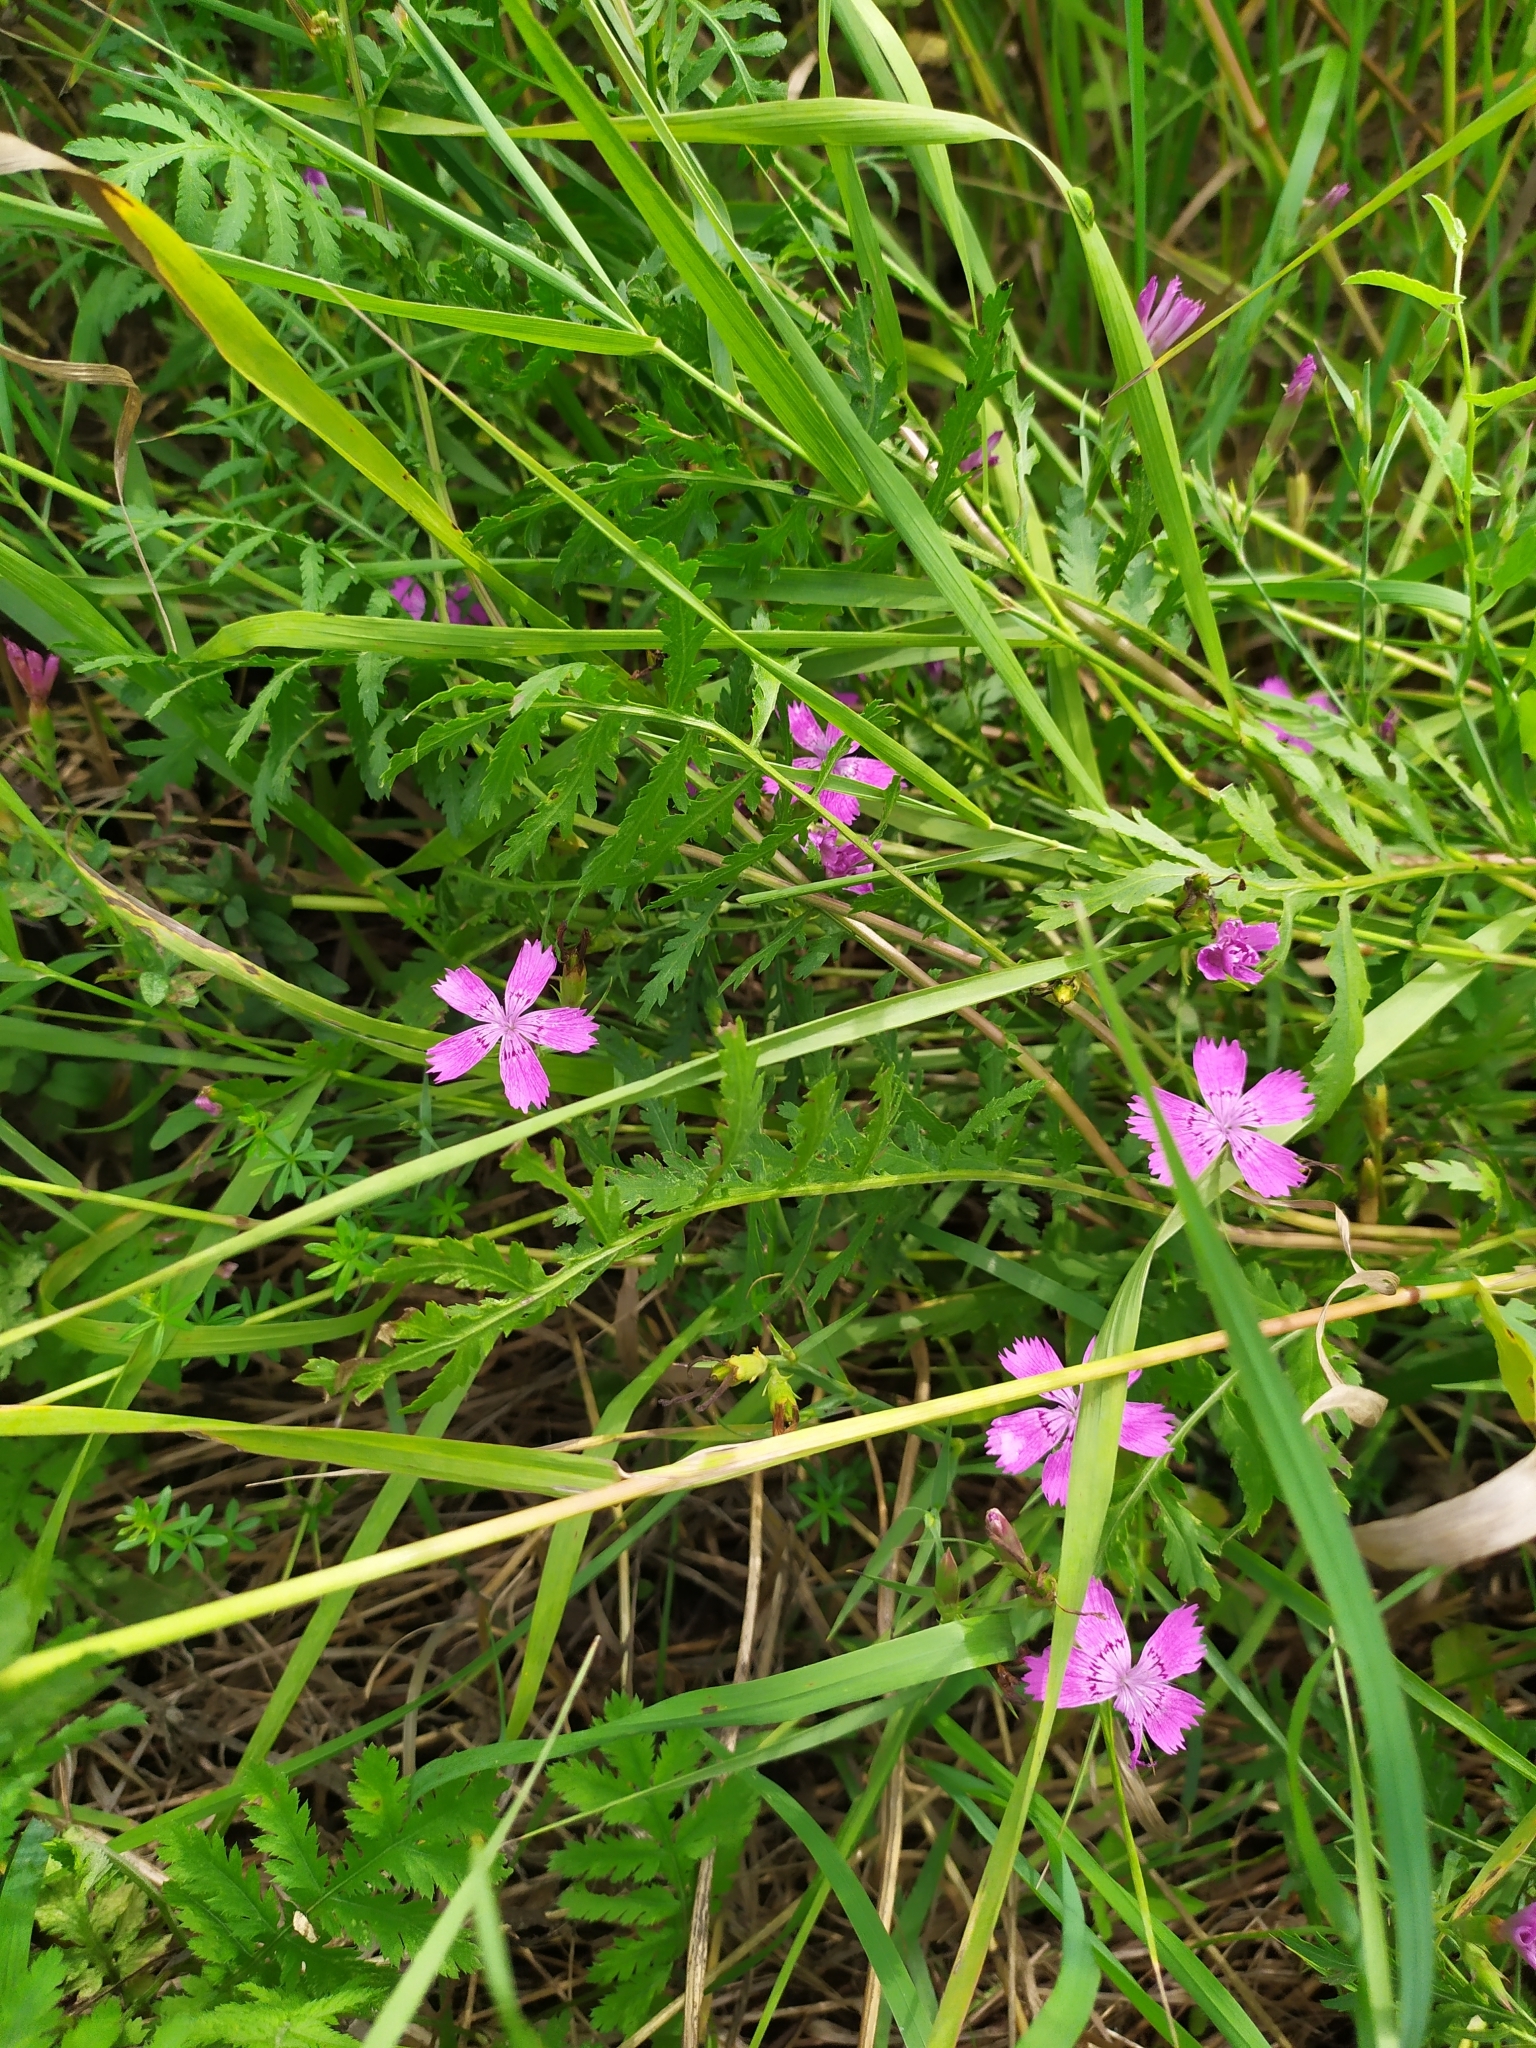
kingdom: Plantae
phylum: Tracheophyta
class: Magnoliopsida
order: Caryophyllales
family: Caryophyllaceae
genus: Dianthus
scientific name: Dianthus deltoides
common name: Maiden pink
